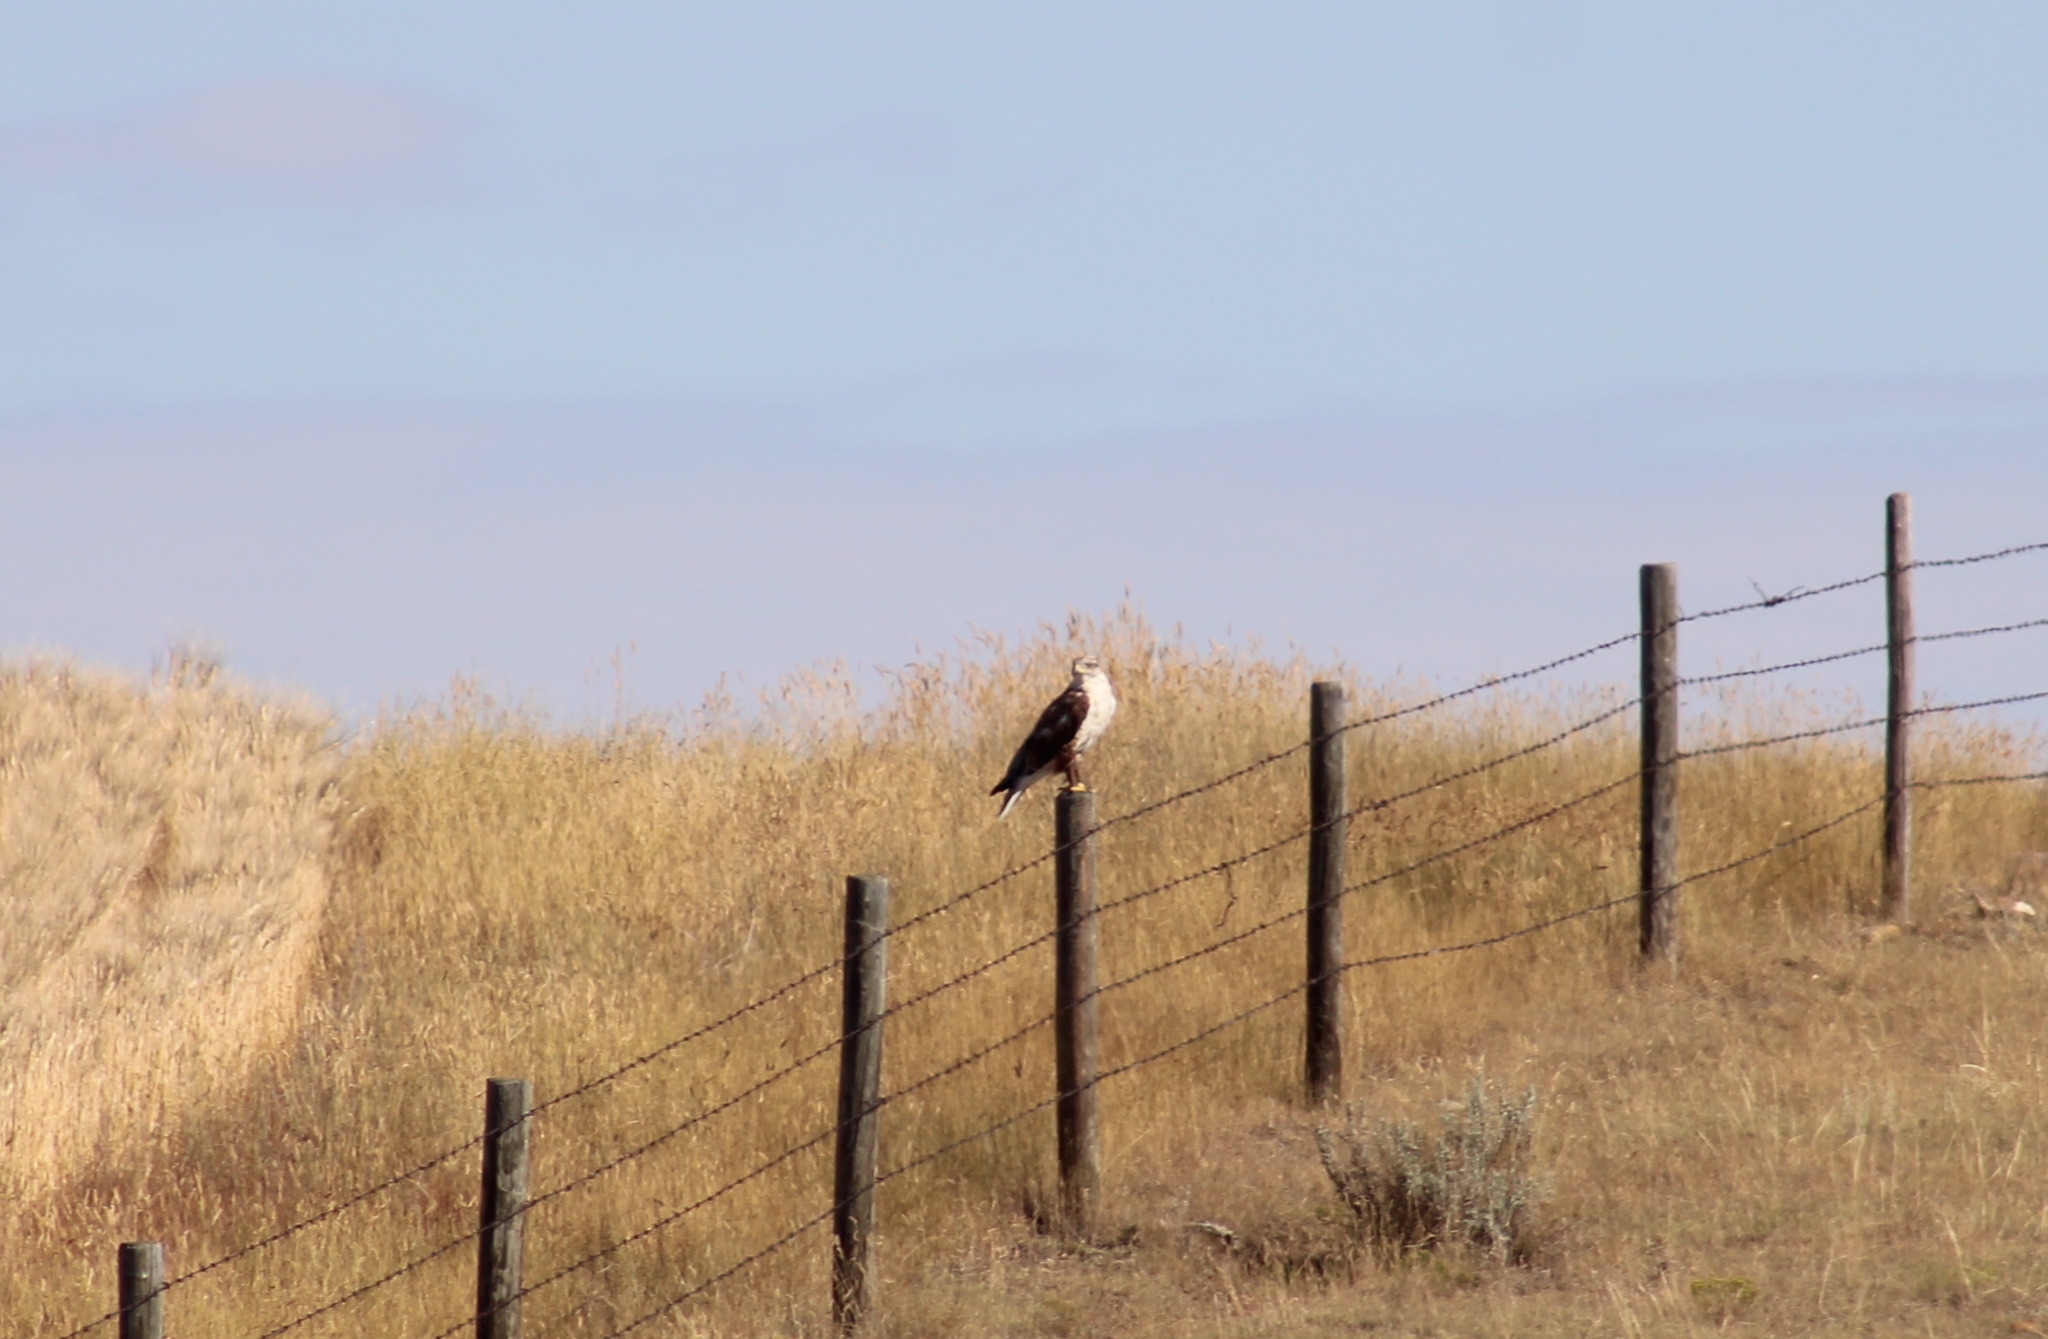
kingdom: Animalia
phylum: Chordata
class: Aves
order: Accipitriformes
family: Accipitridae
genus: Buteo
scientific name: Buteo regalis
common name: Ferruginous hawk
